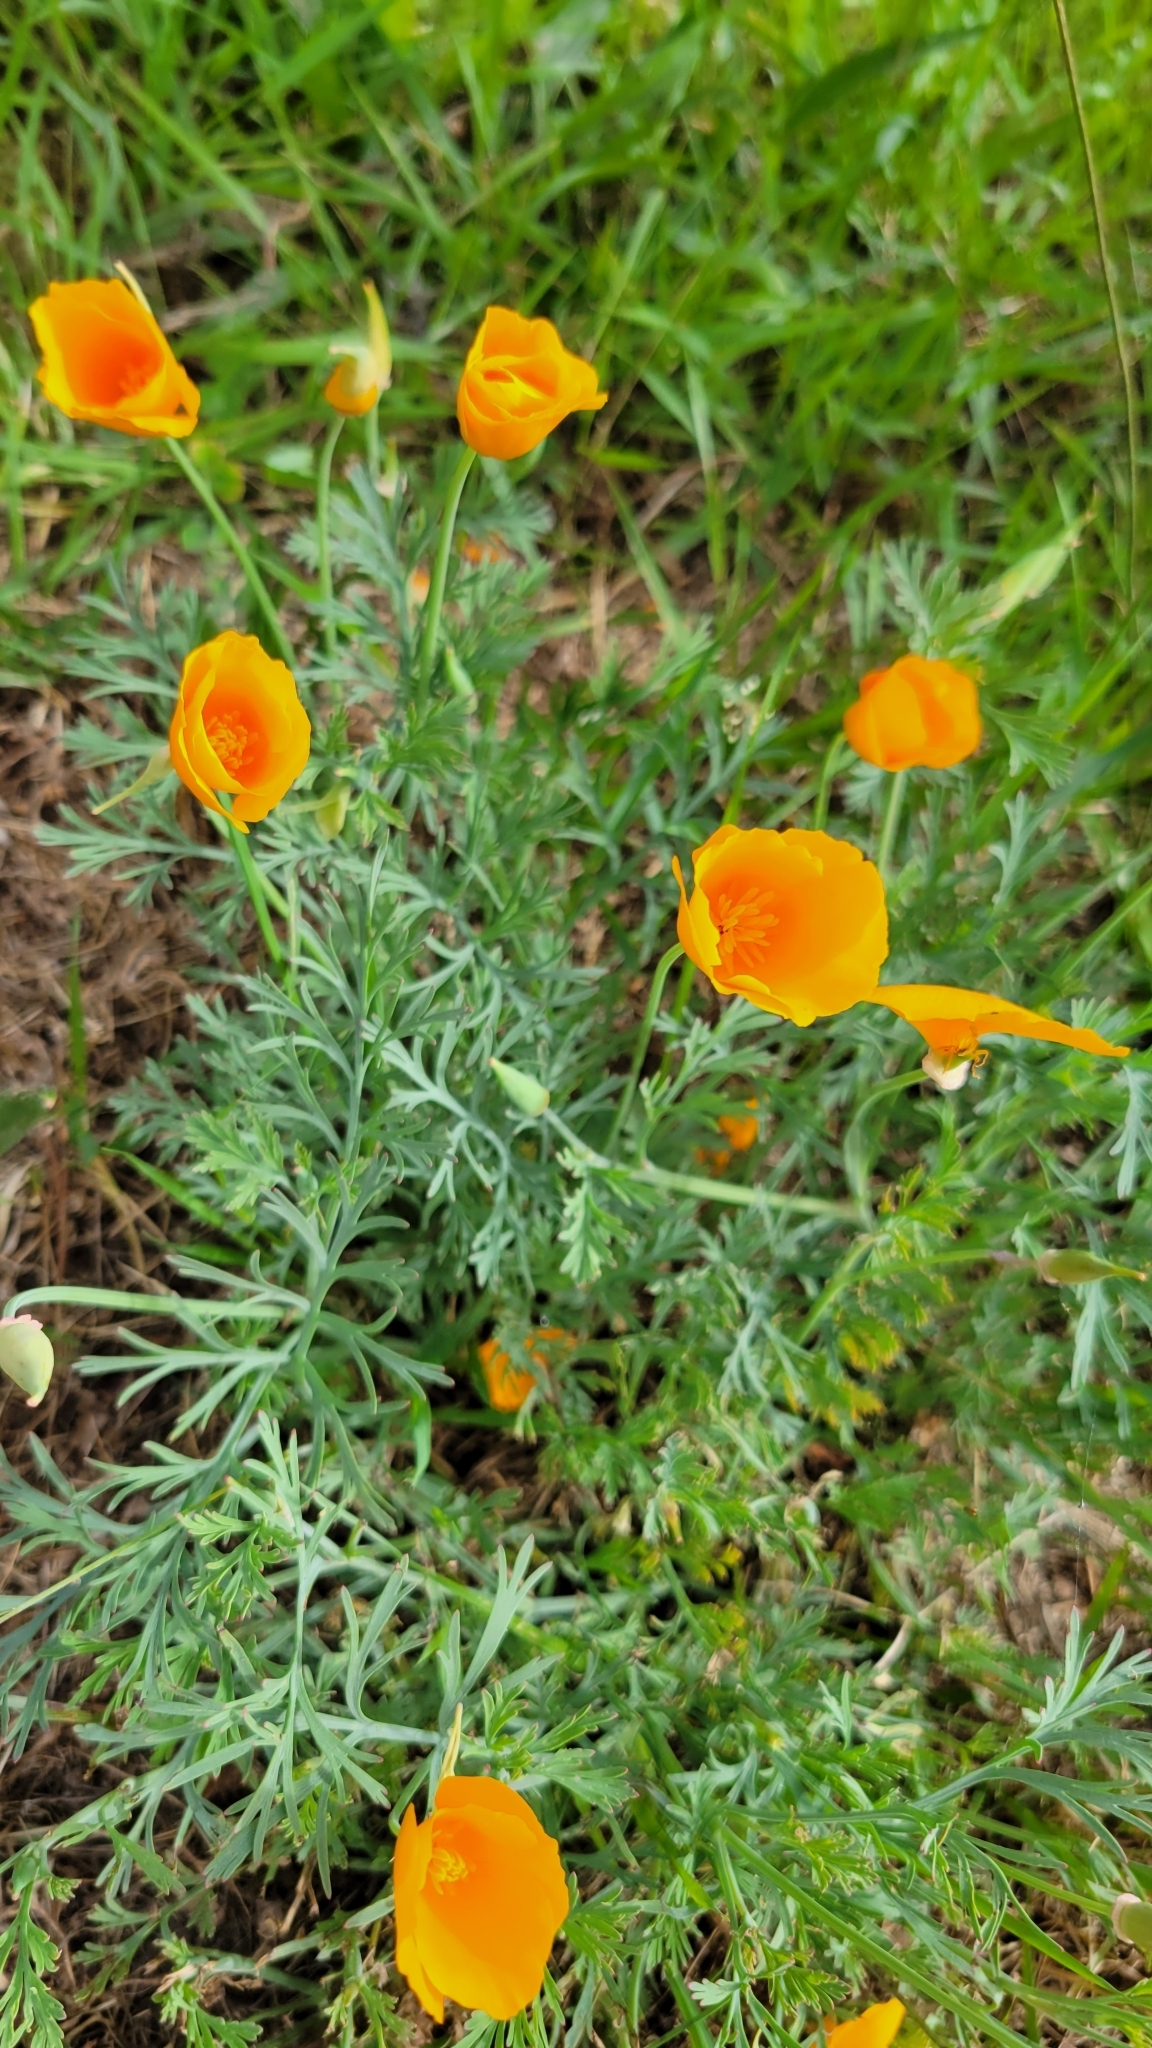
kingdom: Plantae
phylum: Tracheophyta
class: Magnoliopsida
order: Ranunculales
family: Papaveraceae
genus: Eschscholzia
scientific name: Eschscholzia californica
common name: California poppy
